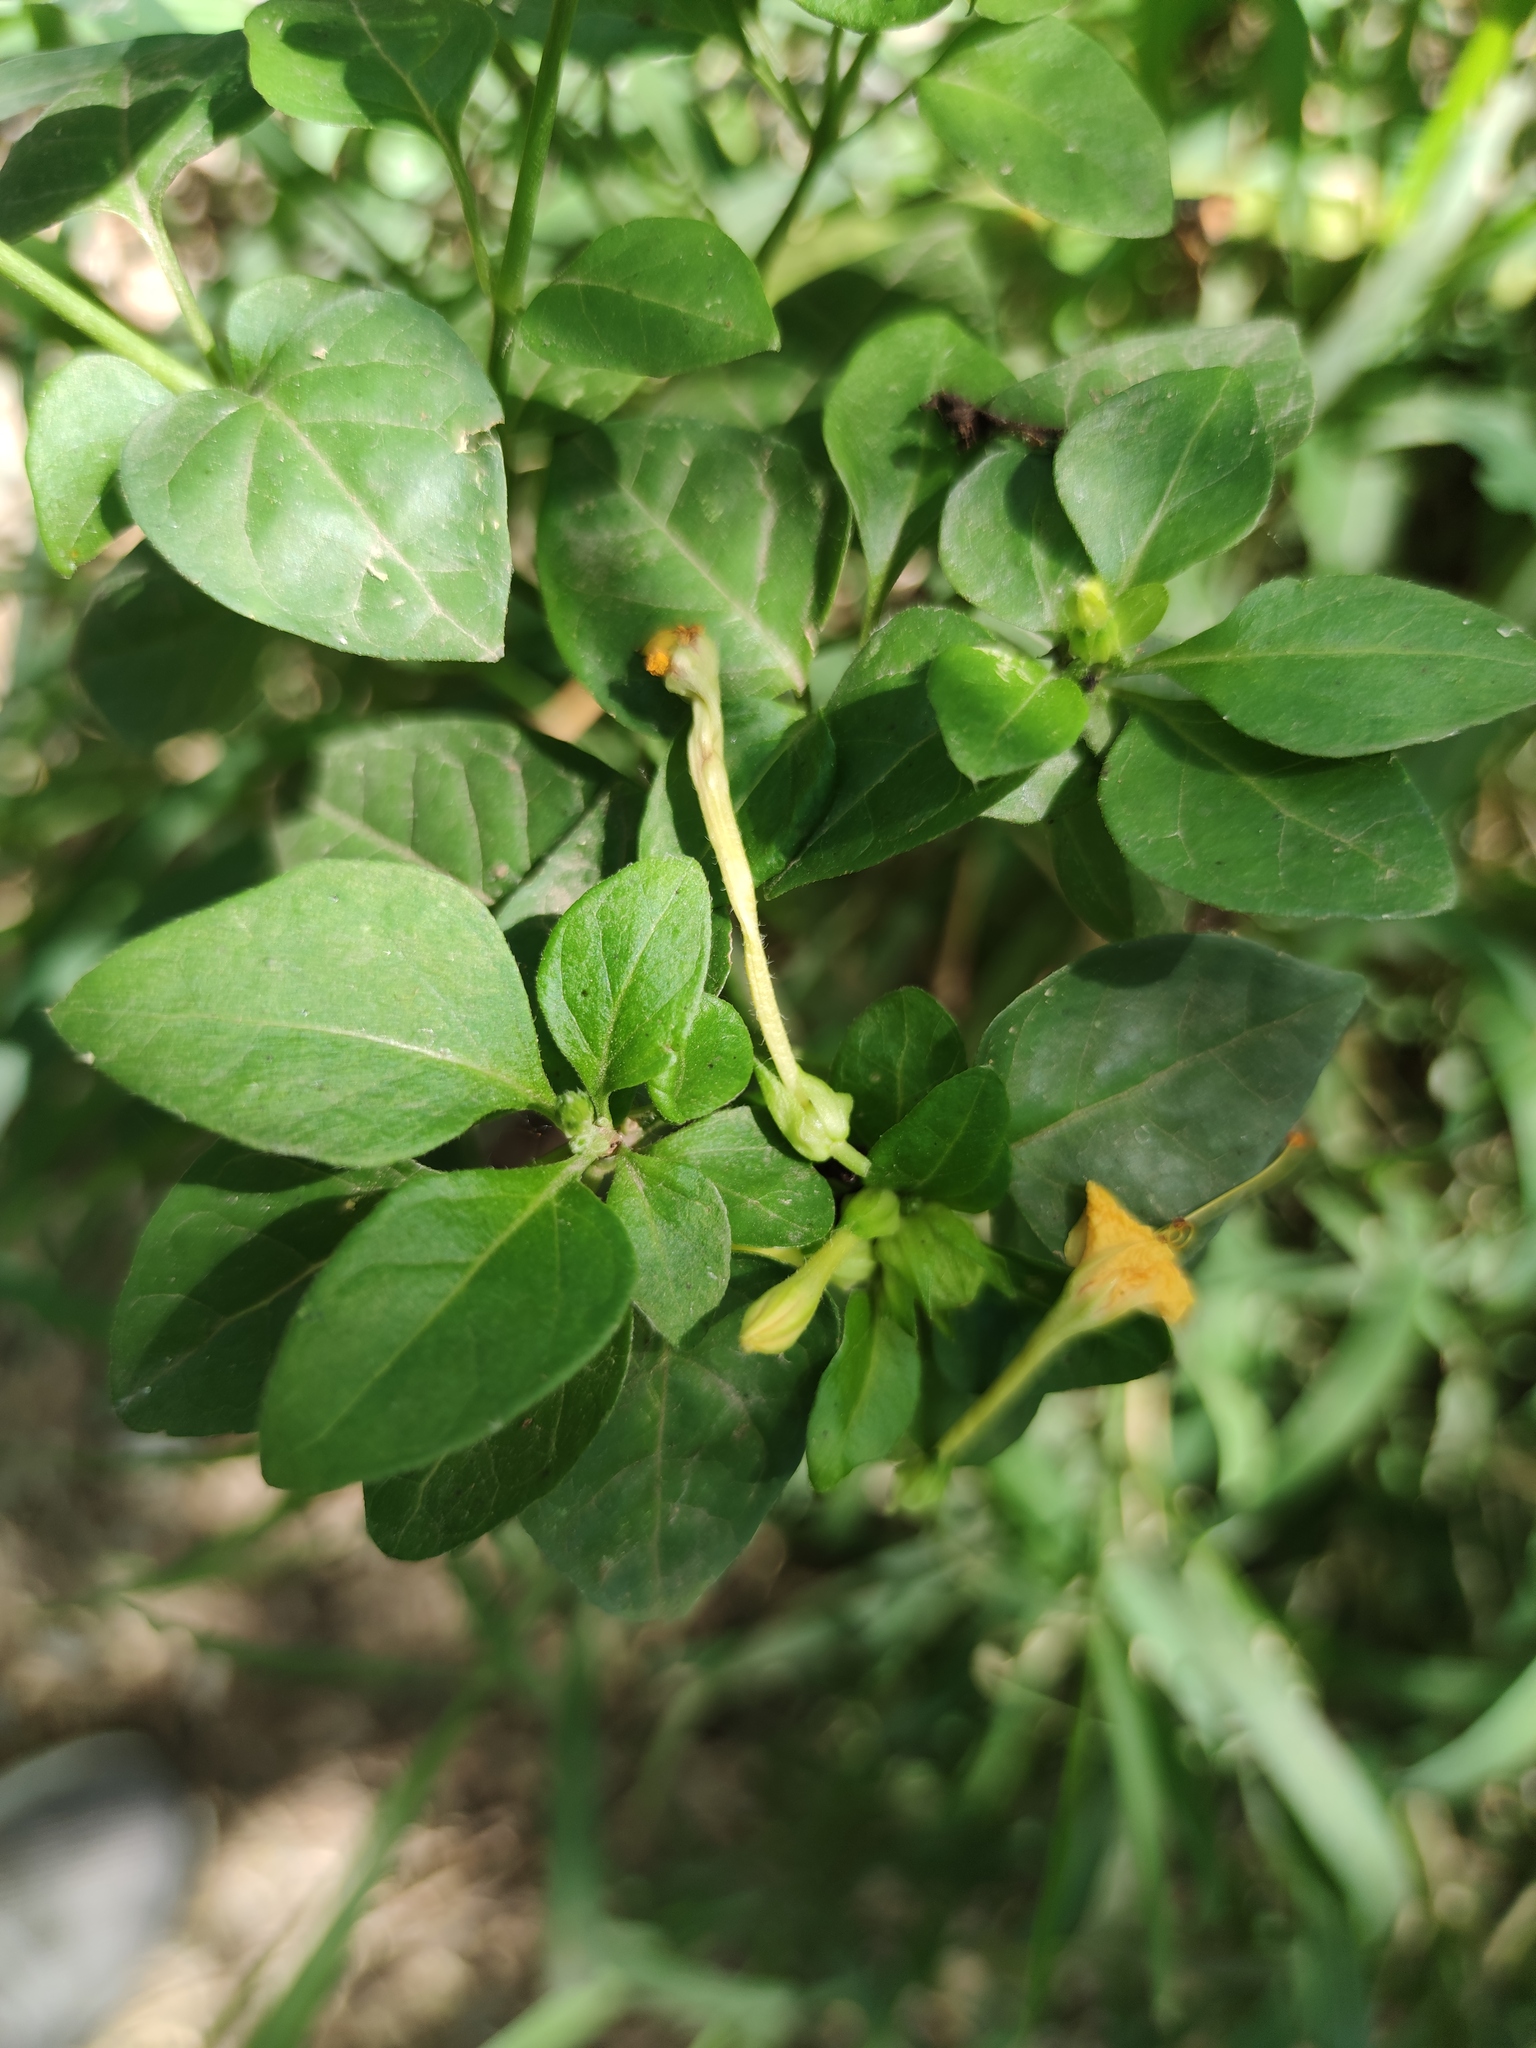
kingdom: Plantae
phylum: Tracheophyta
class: Magnoliopsida
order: Caryophyllales
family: Nyctaginaceae
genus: Mirabilis
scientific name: Mirabilis jalapa
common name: Marvel-of-peru
